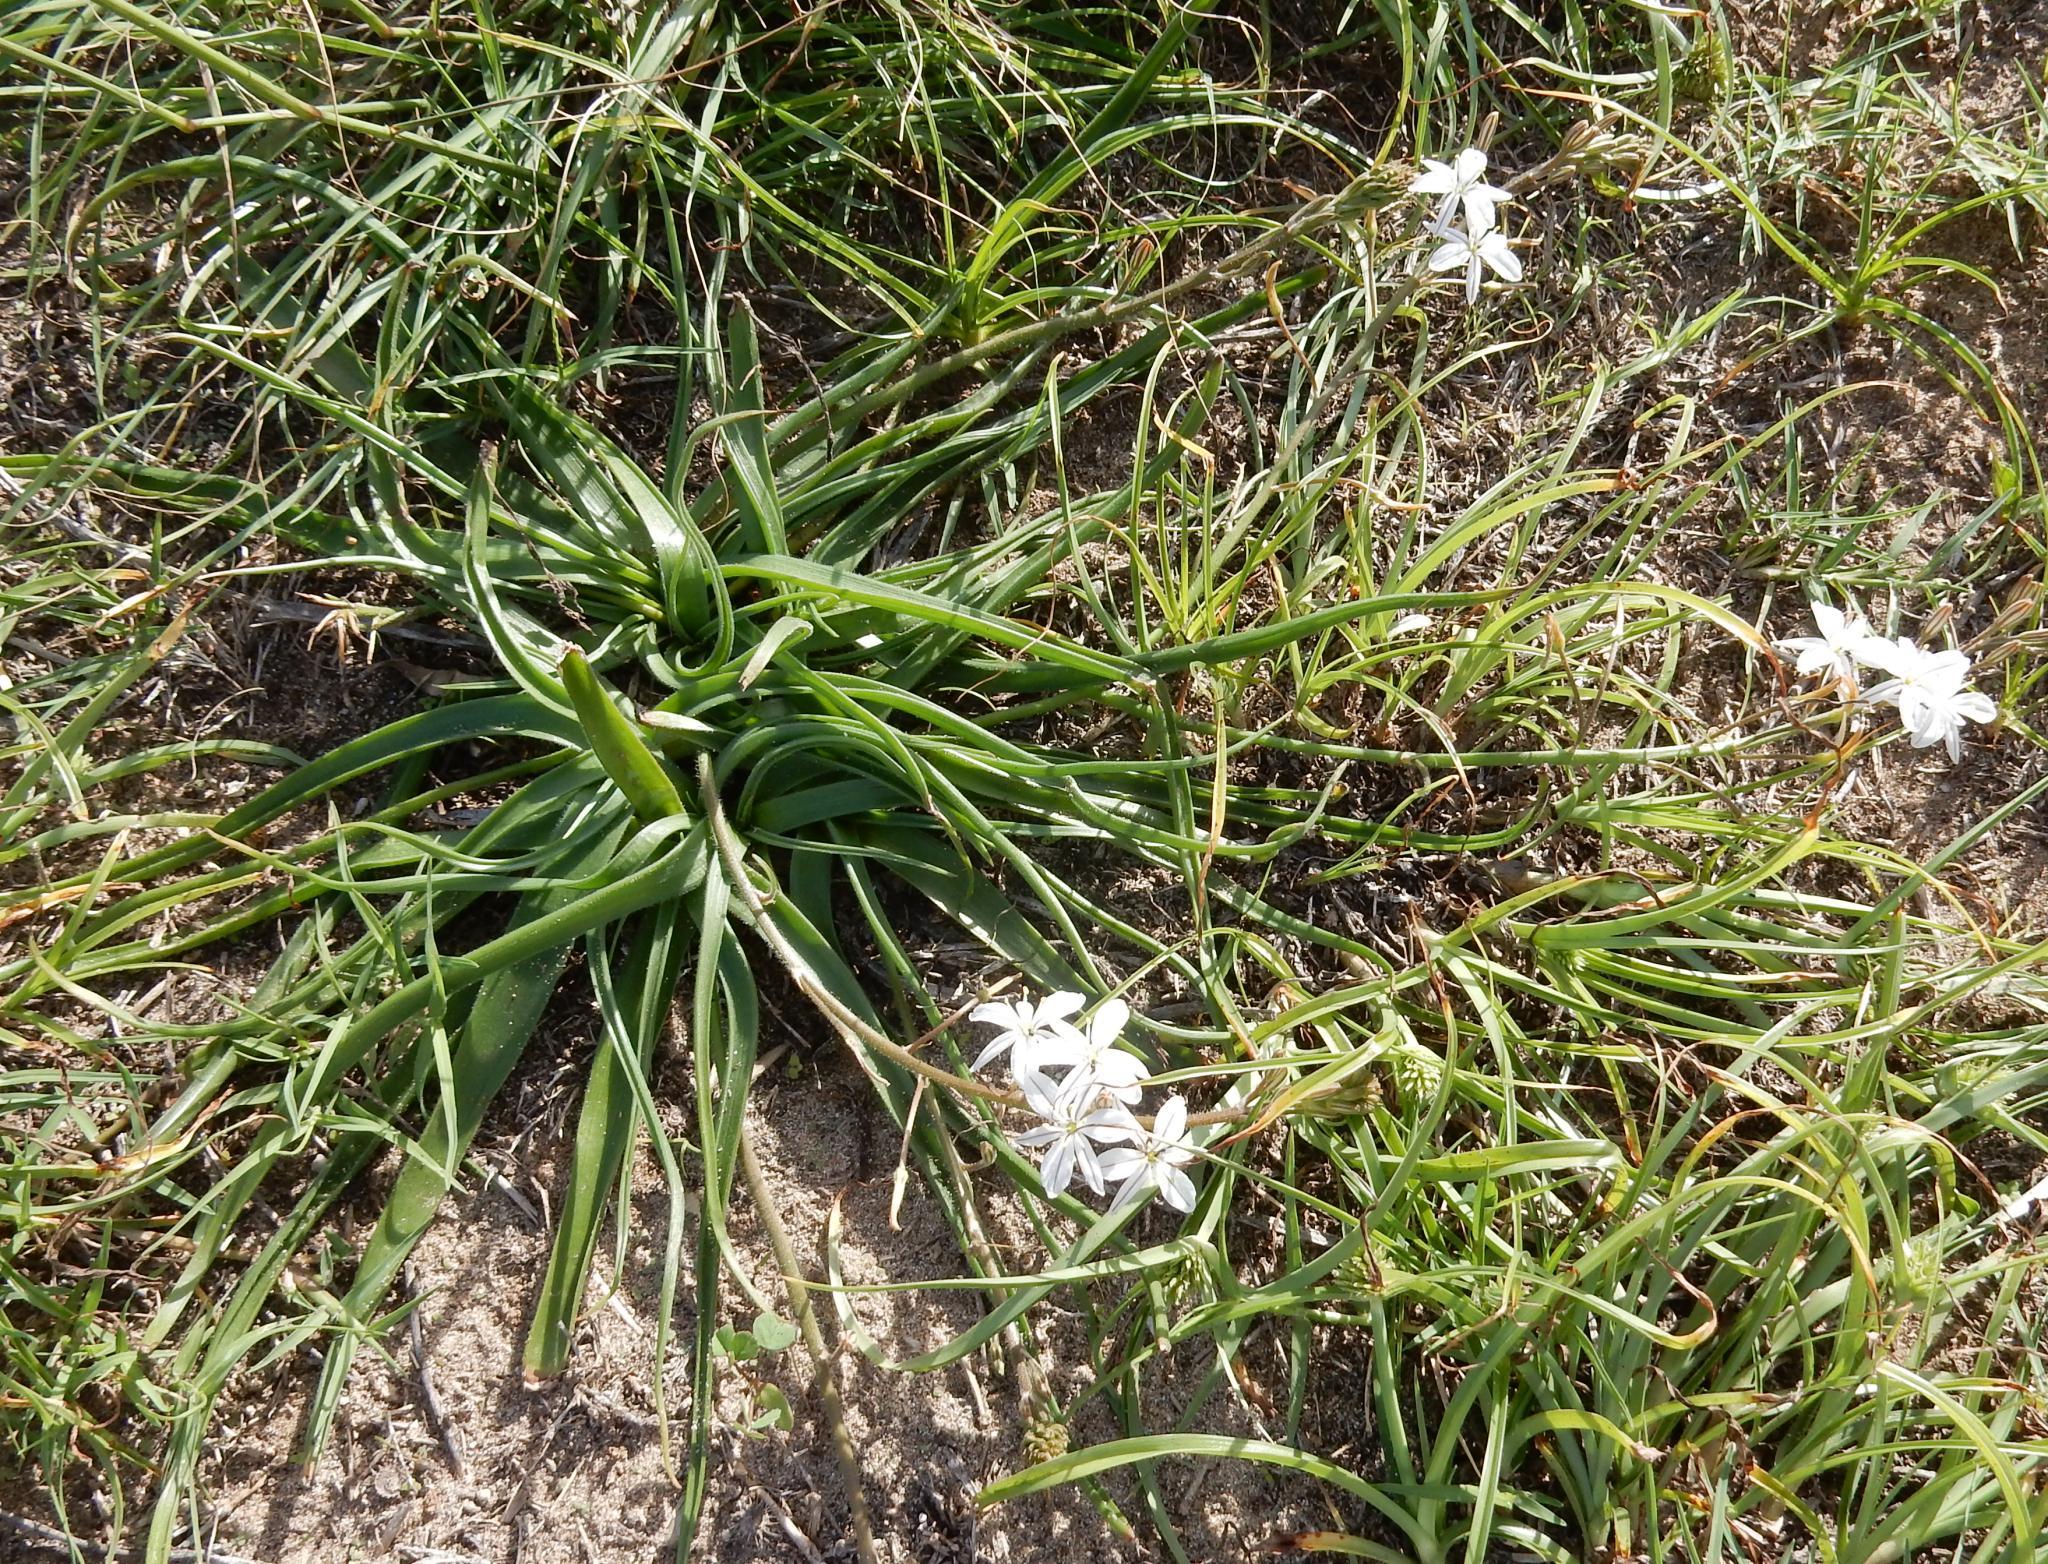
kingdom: Plantae
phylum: Tracheophyta
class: Liliopsida
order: Asparagales
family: Asphodelaceae
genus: Trachyandra
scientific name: Trachyandra divaricata
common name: Dune onionweed
